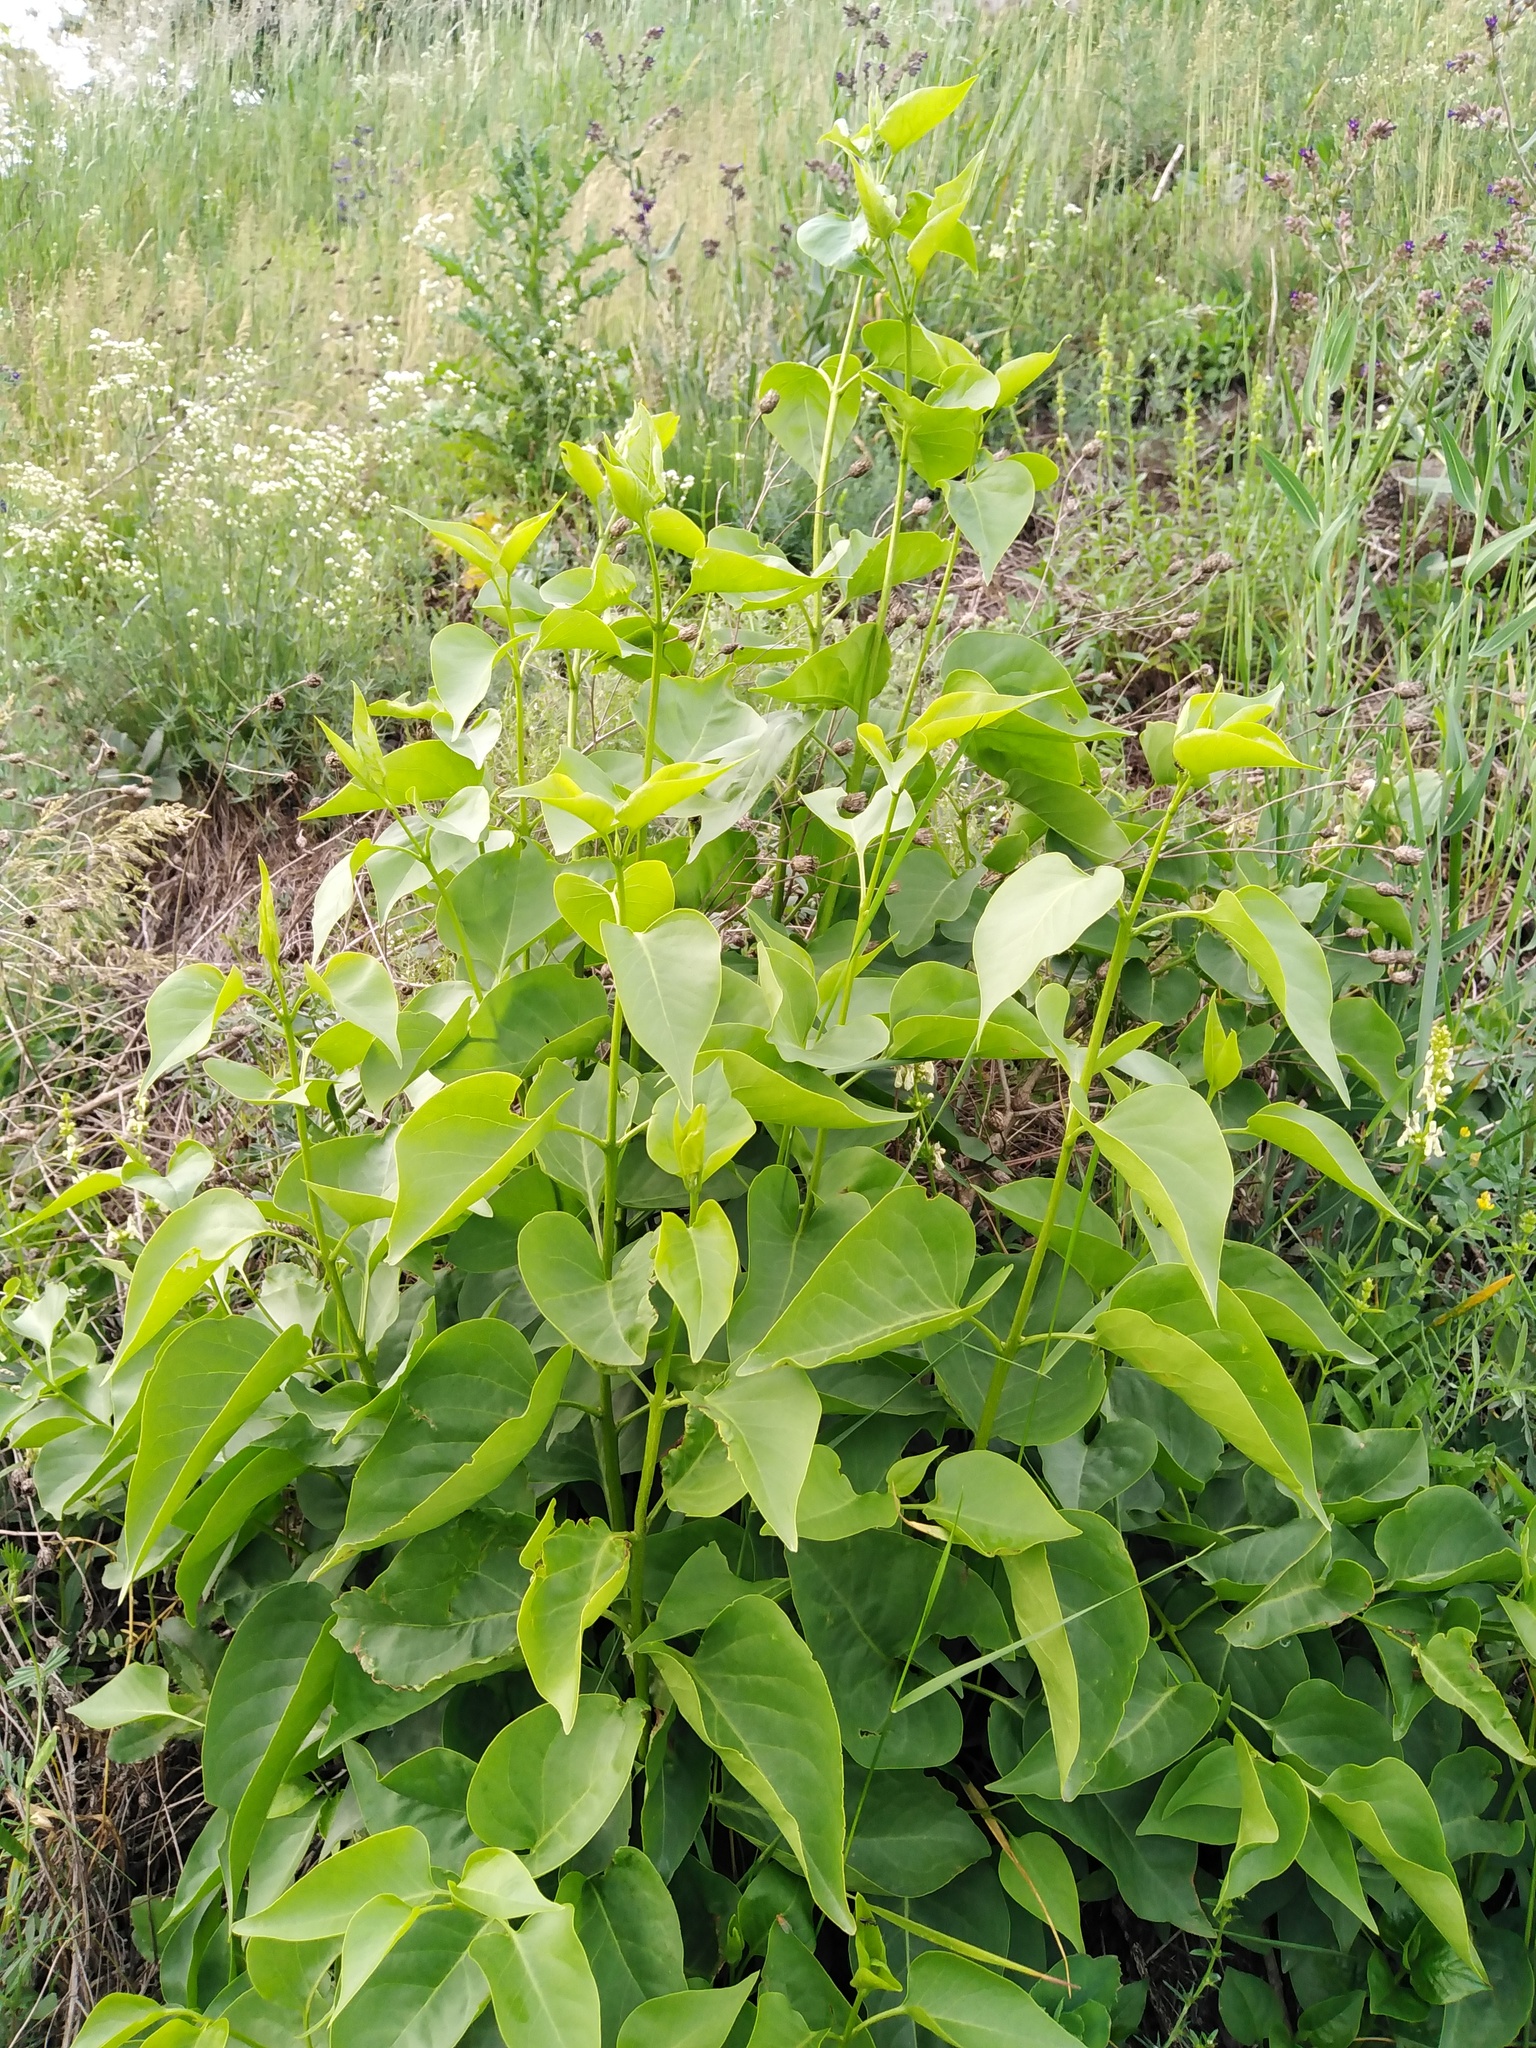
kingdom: Plantae
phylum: Tracheophyta
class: Magnoliopsida
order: Lamiales
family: Oleaceae
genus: Syringa
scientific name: Syringa vulgaris
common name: Common lilac
